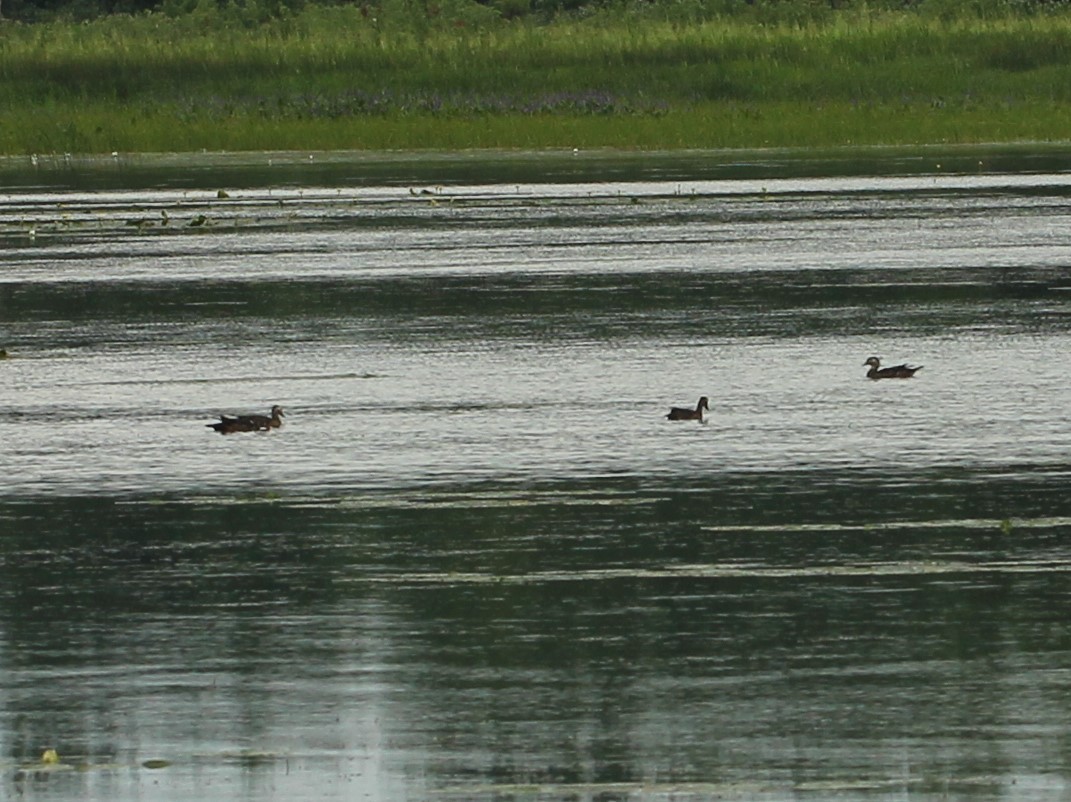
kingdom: Animalia
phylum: Chordata
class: Aves
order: Anseriformes
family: Anatidae
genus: Aix
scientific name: Aix sponsa
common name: Wood duck
